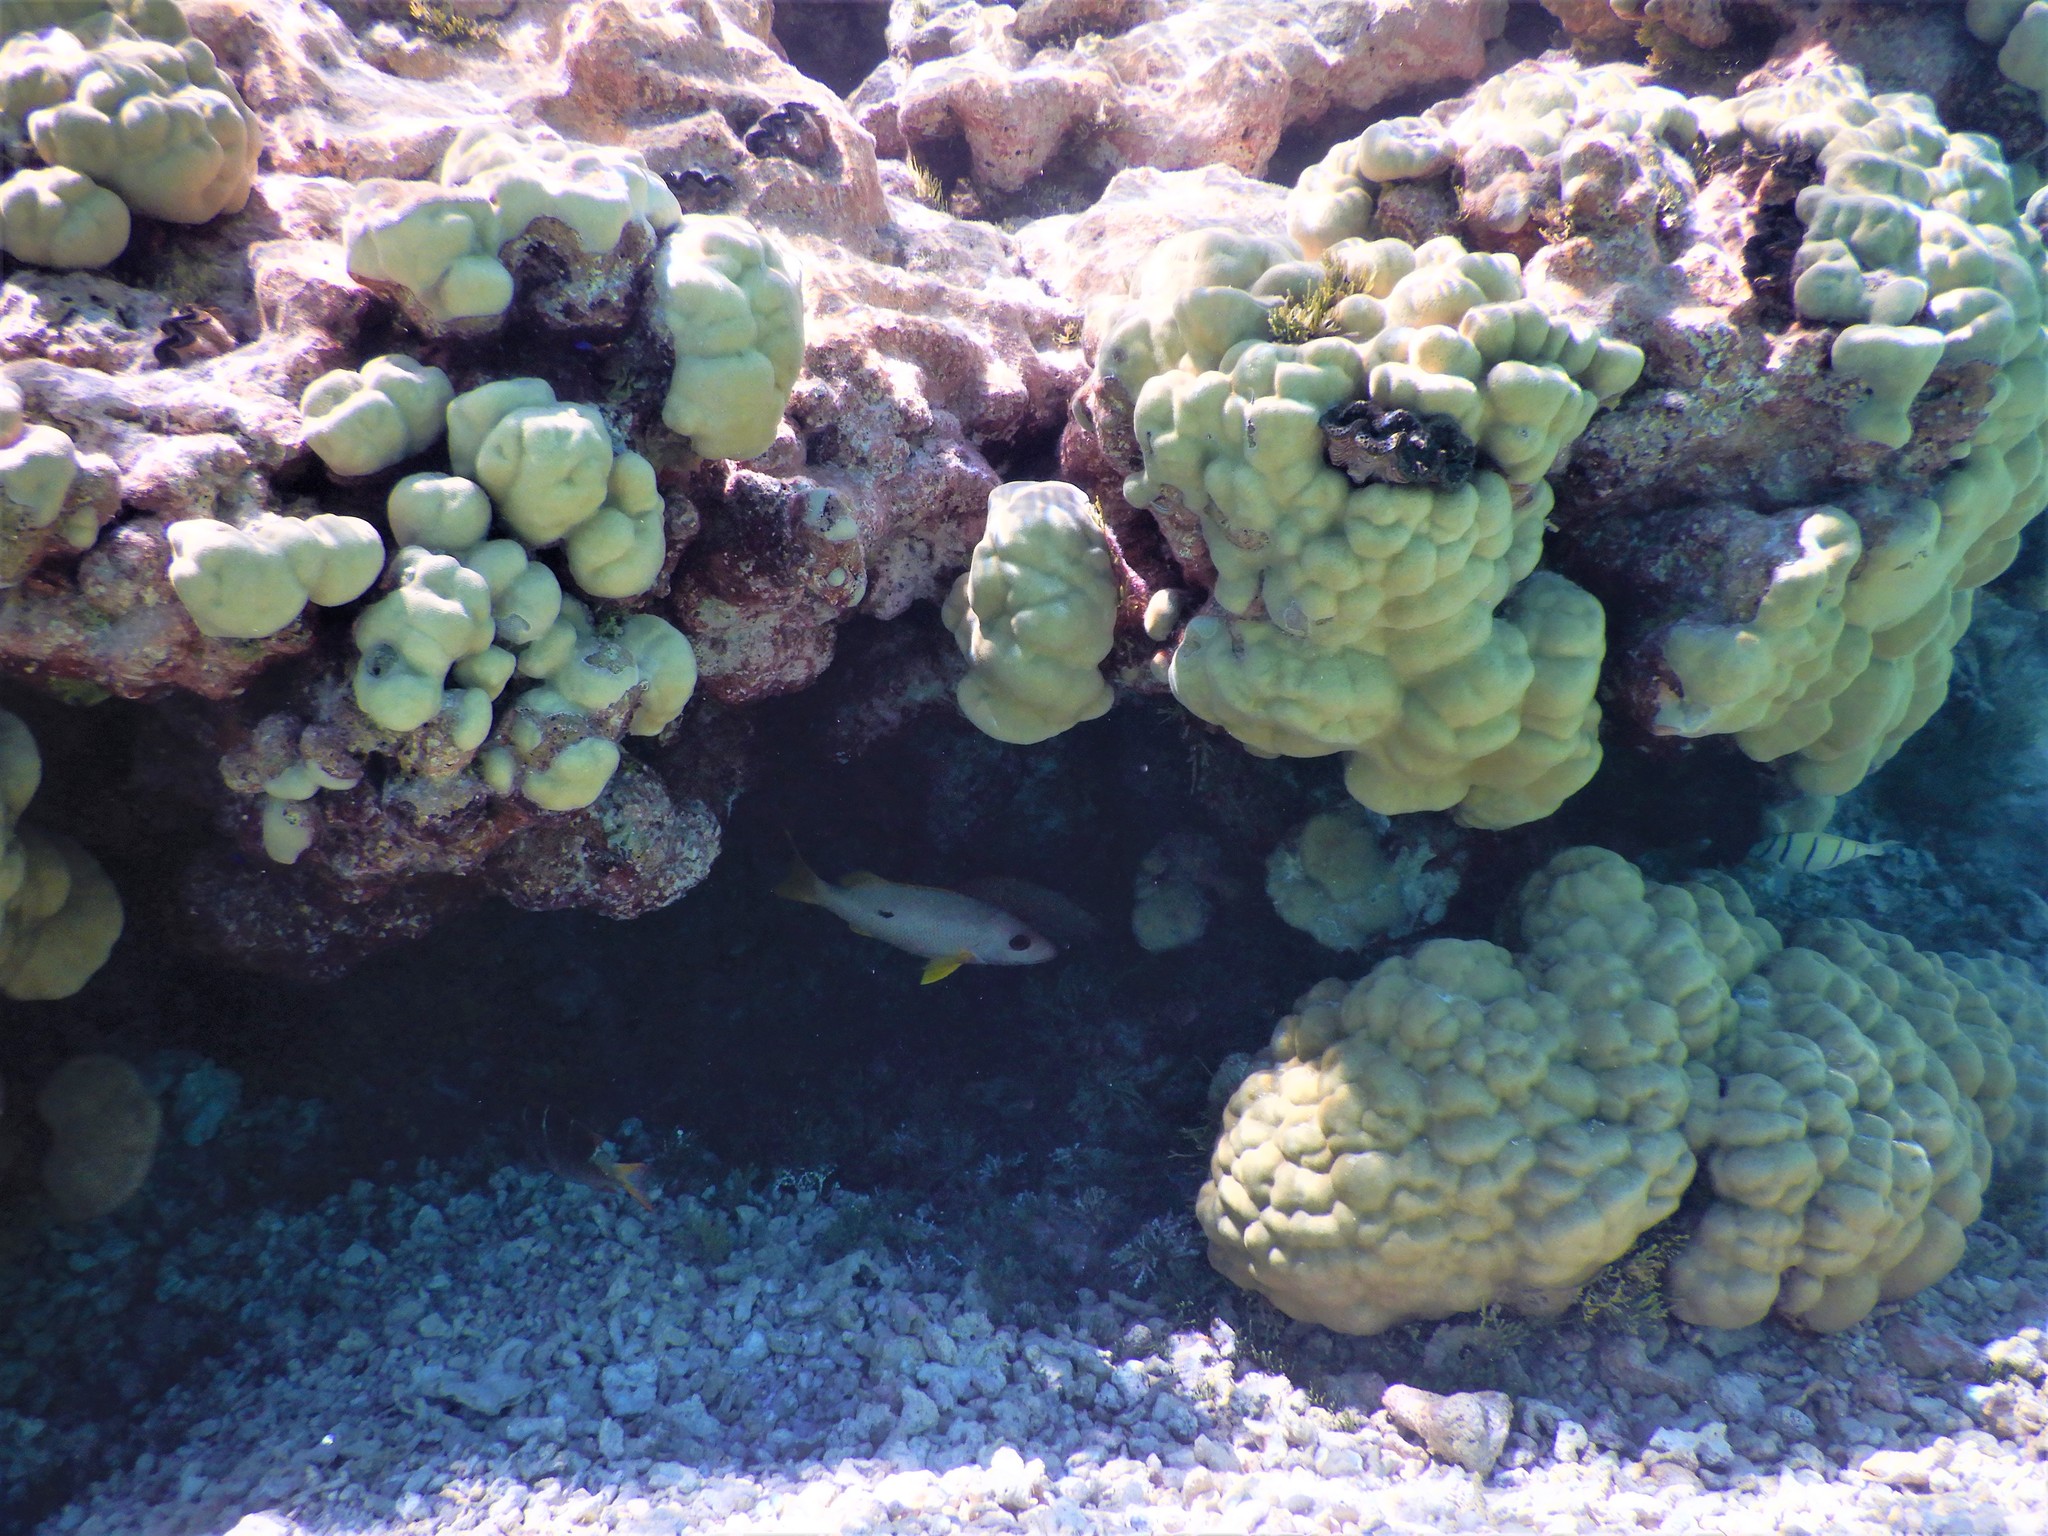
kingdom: Animalia
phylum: Chordata
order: Perciformes
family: Lutjanidae
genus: Lutjanus
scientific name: Lutjanus monostigma
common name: Onespot snapper
